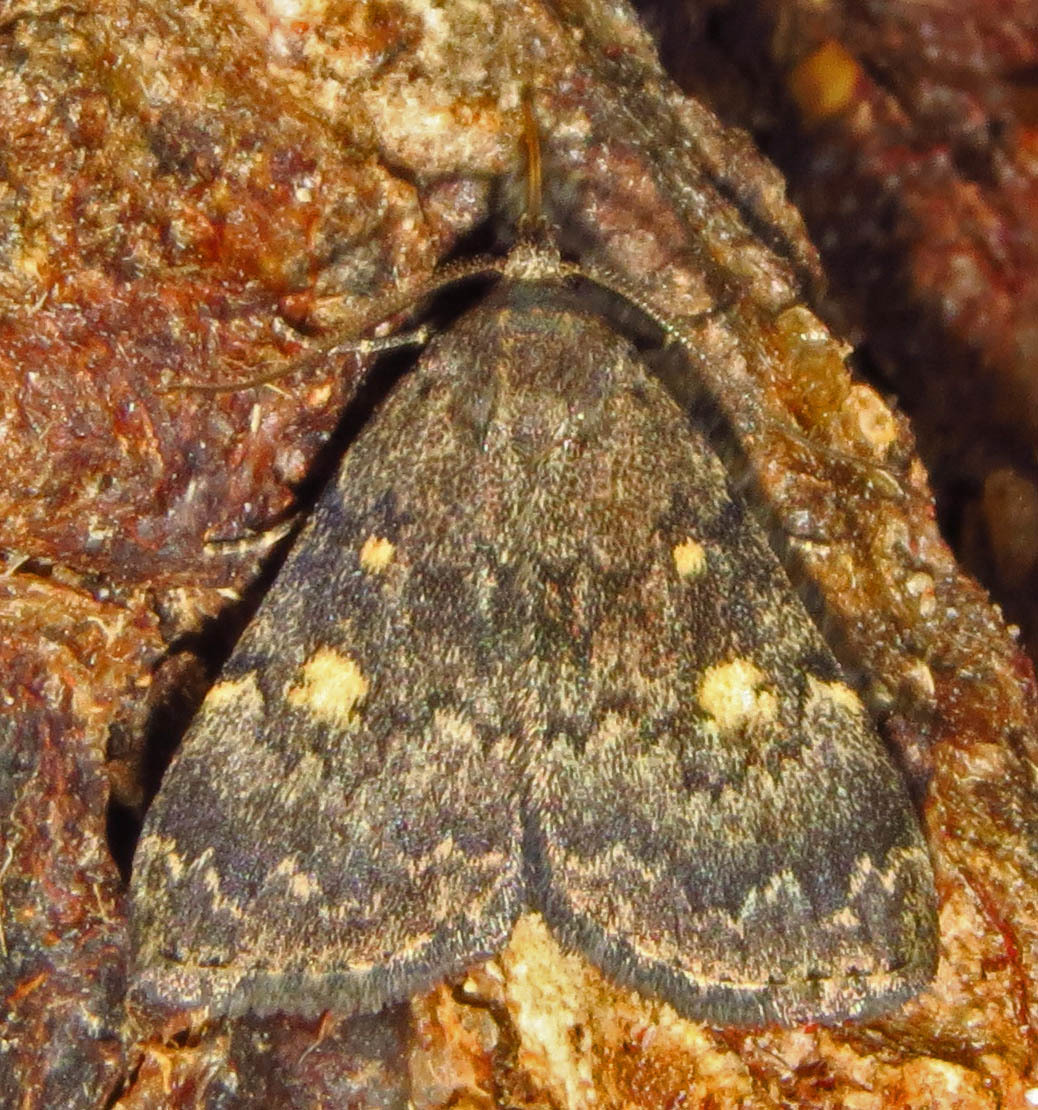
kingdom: Animalia
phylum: Arthropoda
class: Insecta
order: Lepidoptera
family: Erebidae
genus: Idia
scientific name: Idia aemula
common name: Common idia moth
